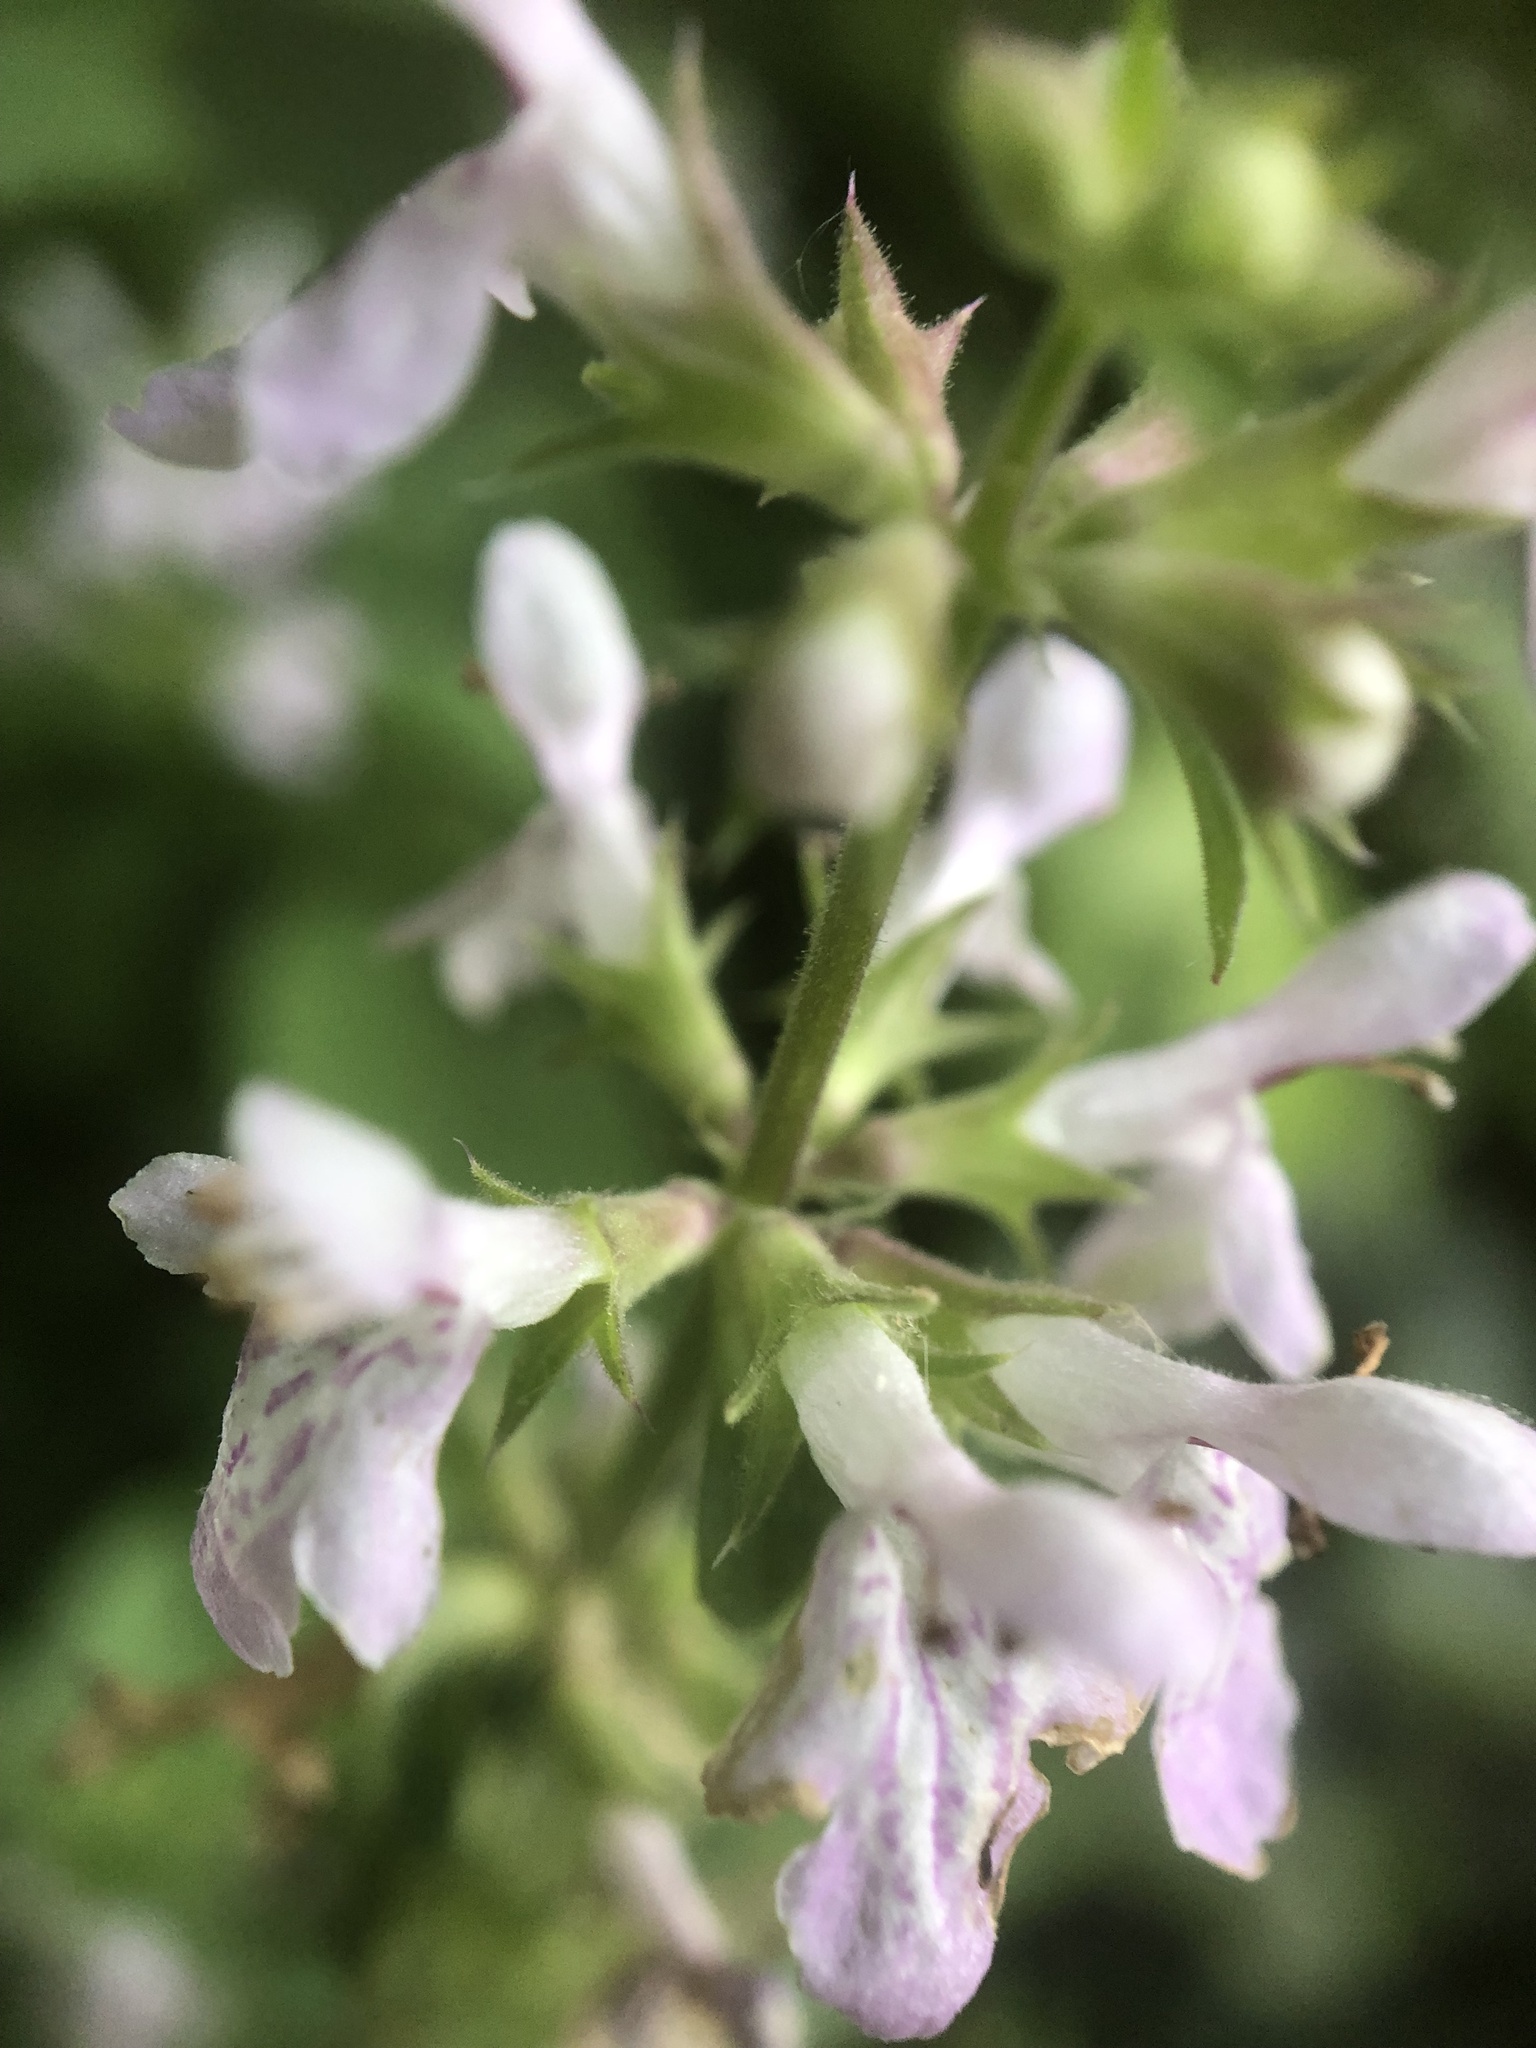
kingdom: Plantae
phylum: Tracheophyta
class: Magnoliopsida
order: Lamiales
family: Lamiaceae
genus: Stachys
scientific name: Stachys floridana
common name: Florida betony
